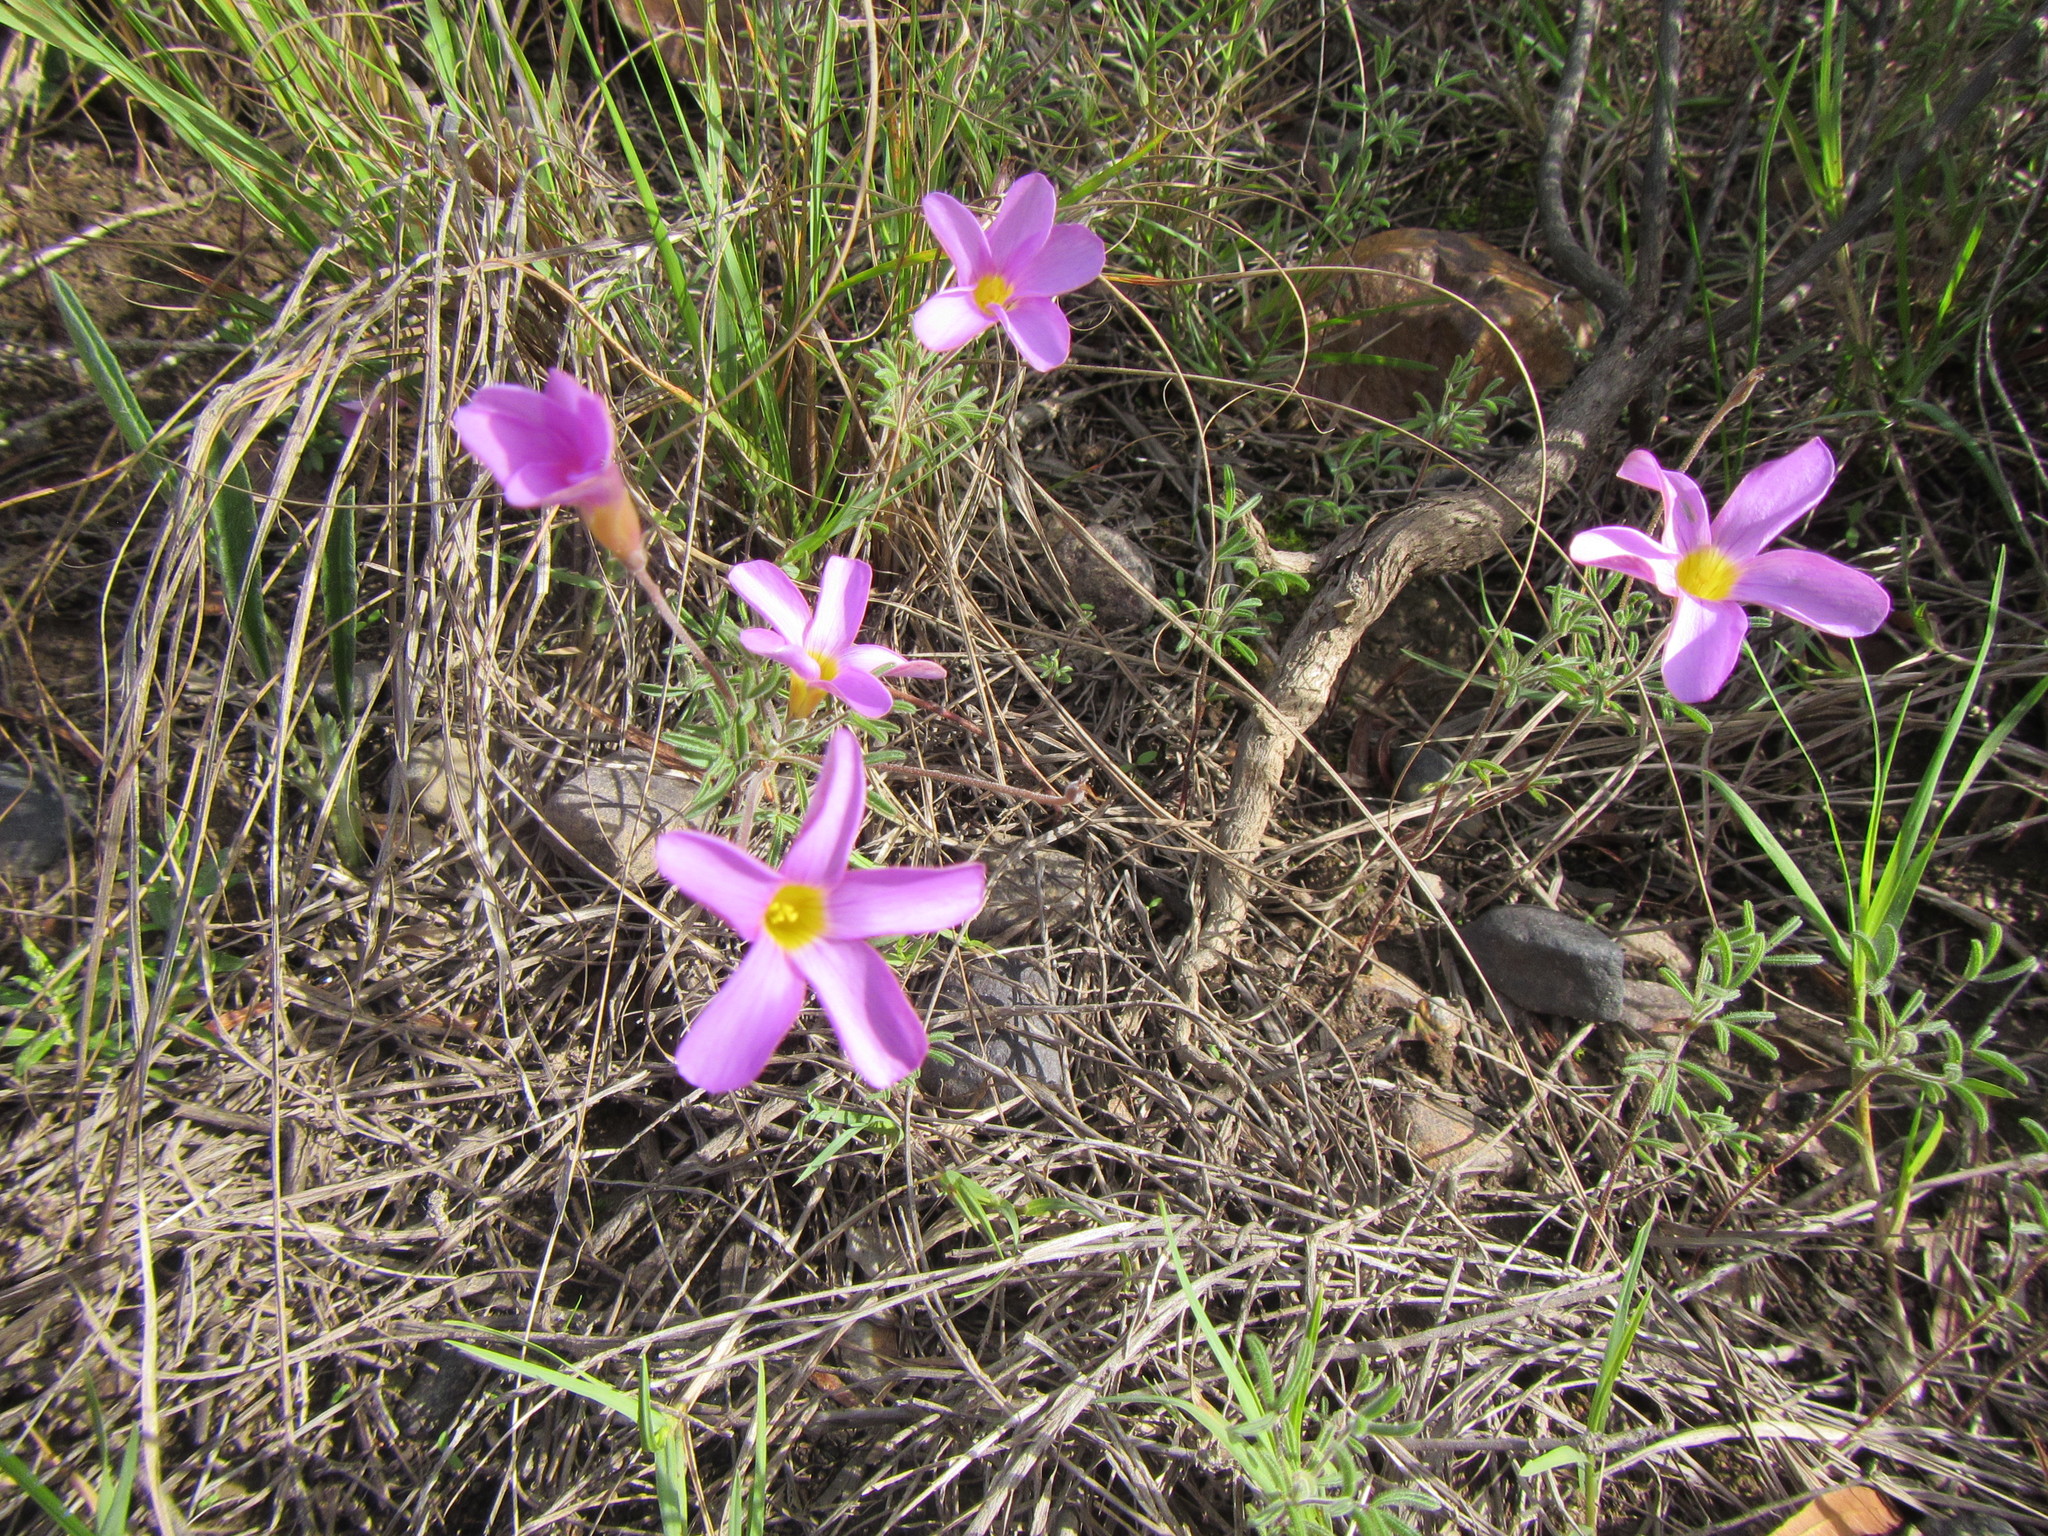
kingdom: Plantae
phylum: Tracheophyta
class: Magnoliopsida
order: Oxalidales
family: Oxalidaceae
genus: Oxalis
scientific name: Oxalis ciliaris
